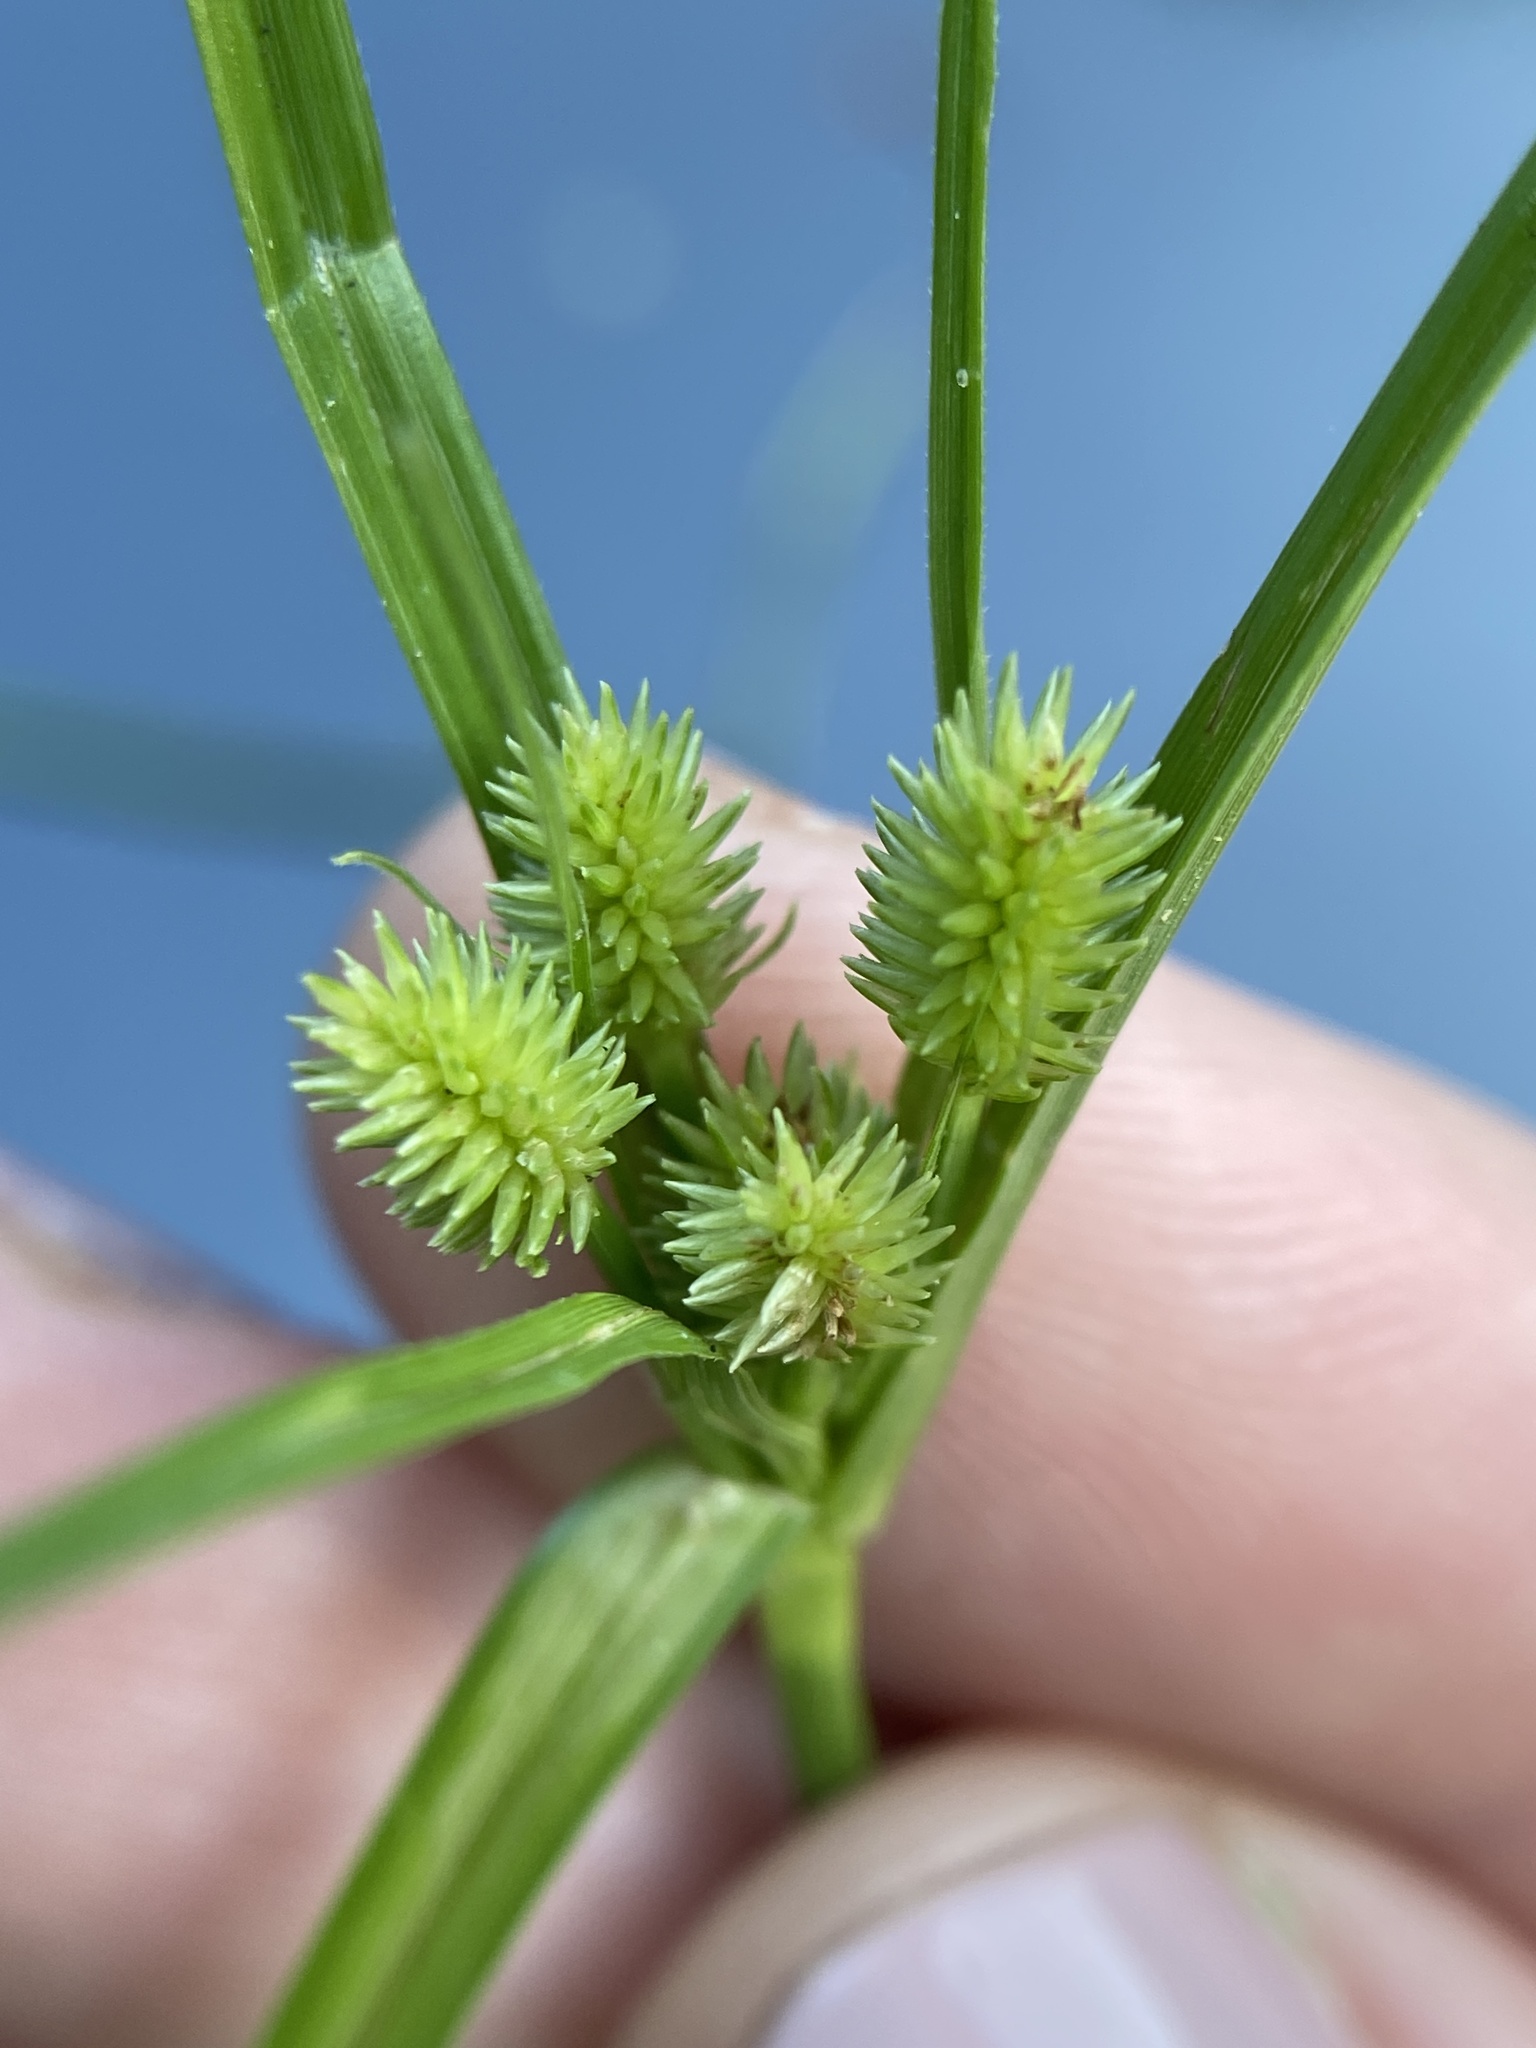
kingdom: Plantae
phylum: Tracheophyta
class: Liliopsida
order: Poales
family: Cyperaceae
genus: Cyperus
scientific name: Cyperus retrorsus
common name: Pinebarren flat sedge
